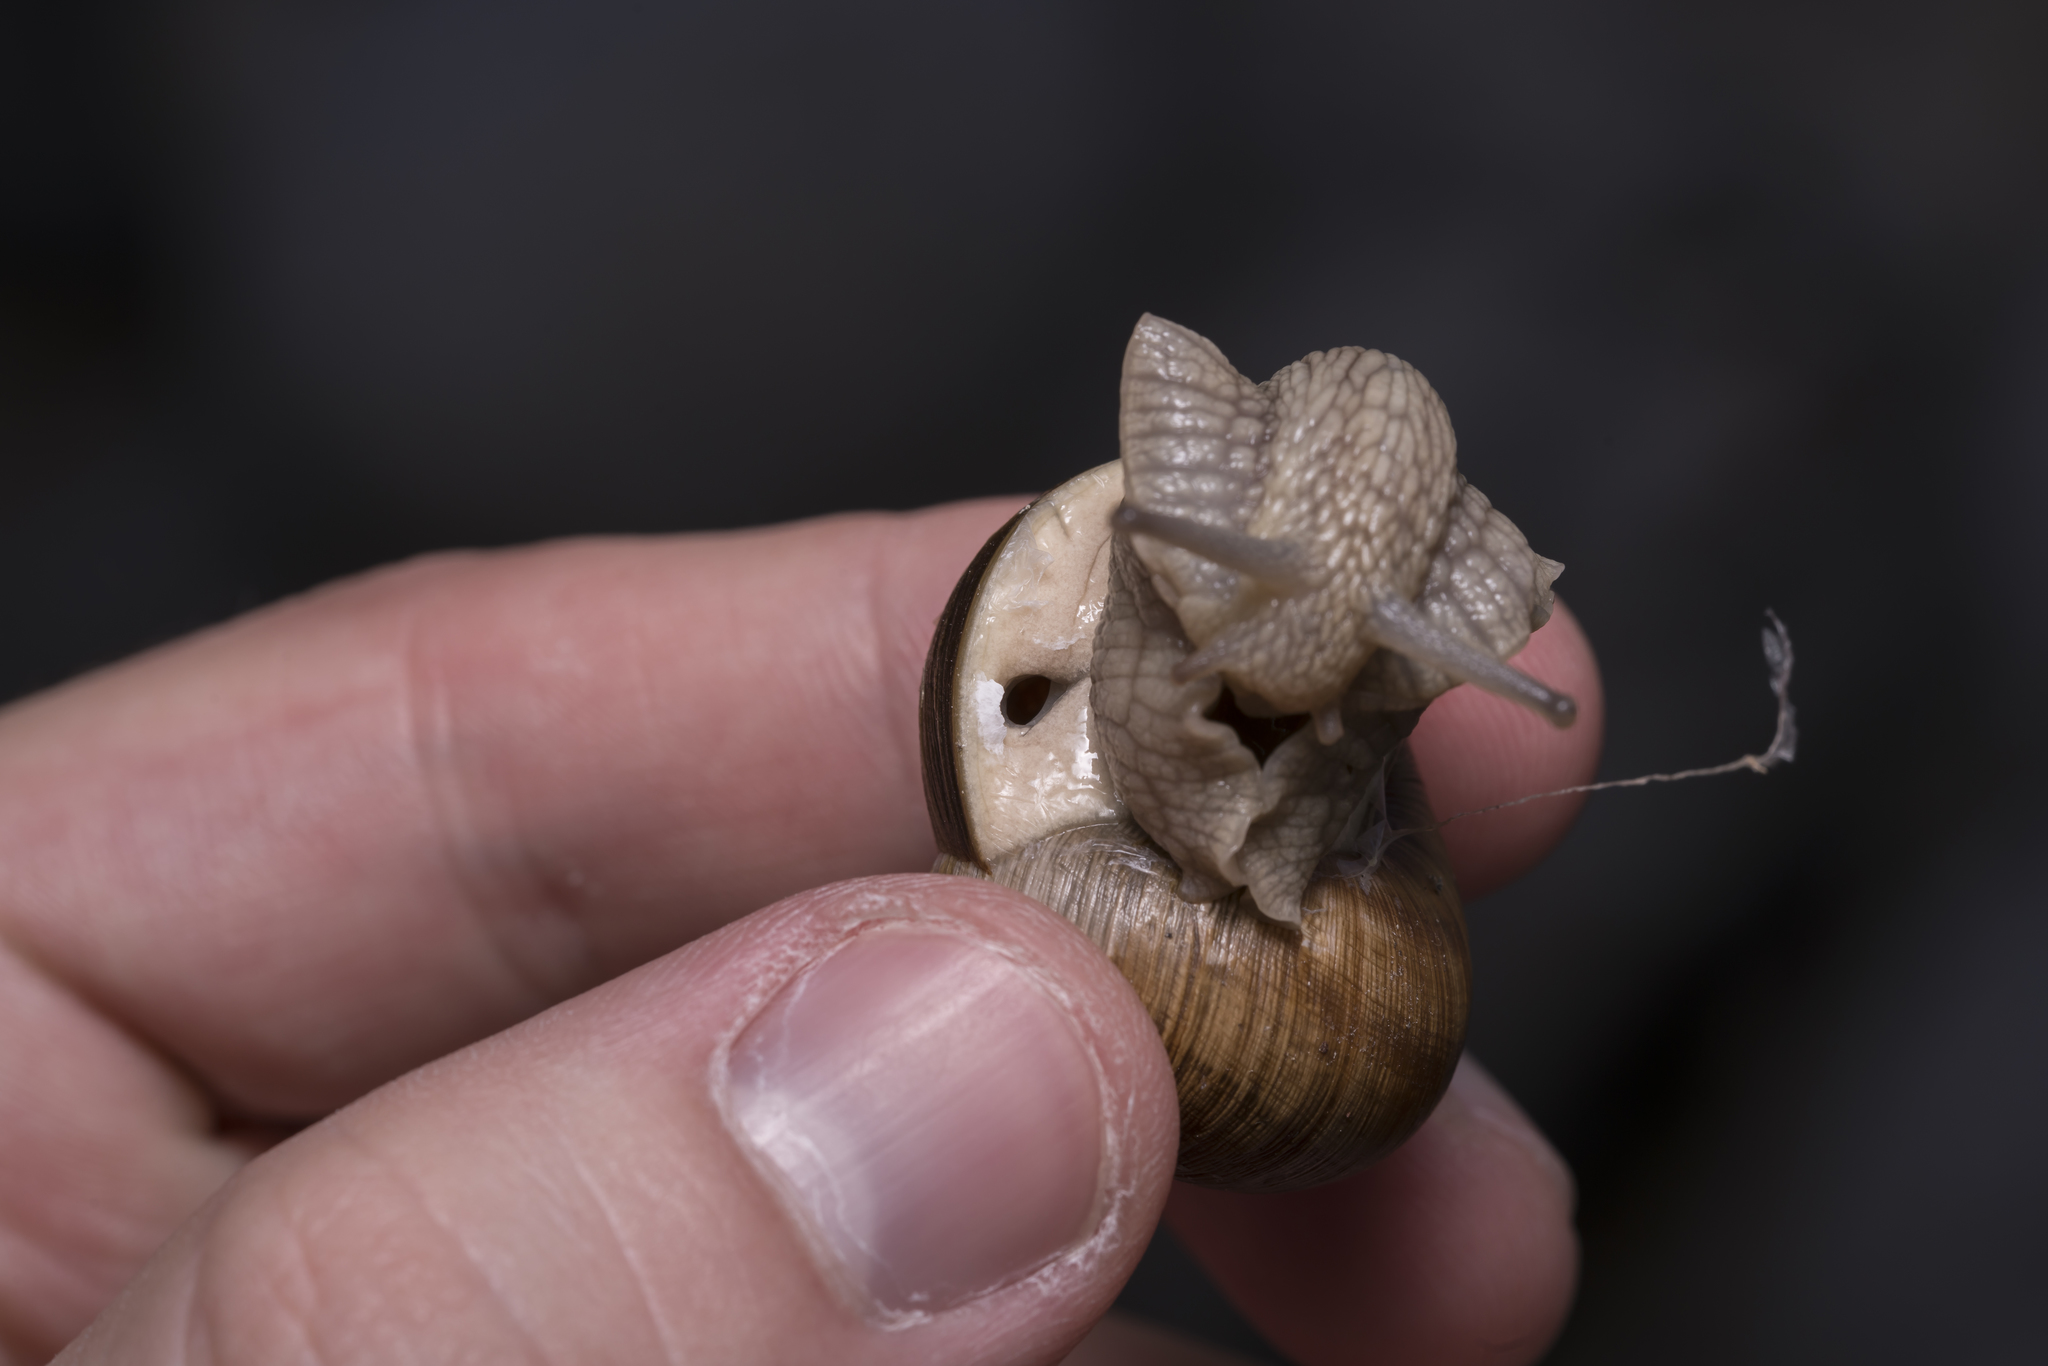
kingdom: Animalia
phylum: Mollusca
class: Gastropoda
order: Stylommatophora
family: Helicidae
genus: Helix
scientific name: Helix pomatia
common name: Roman snail
